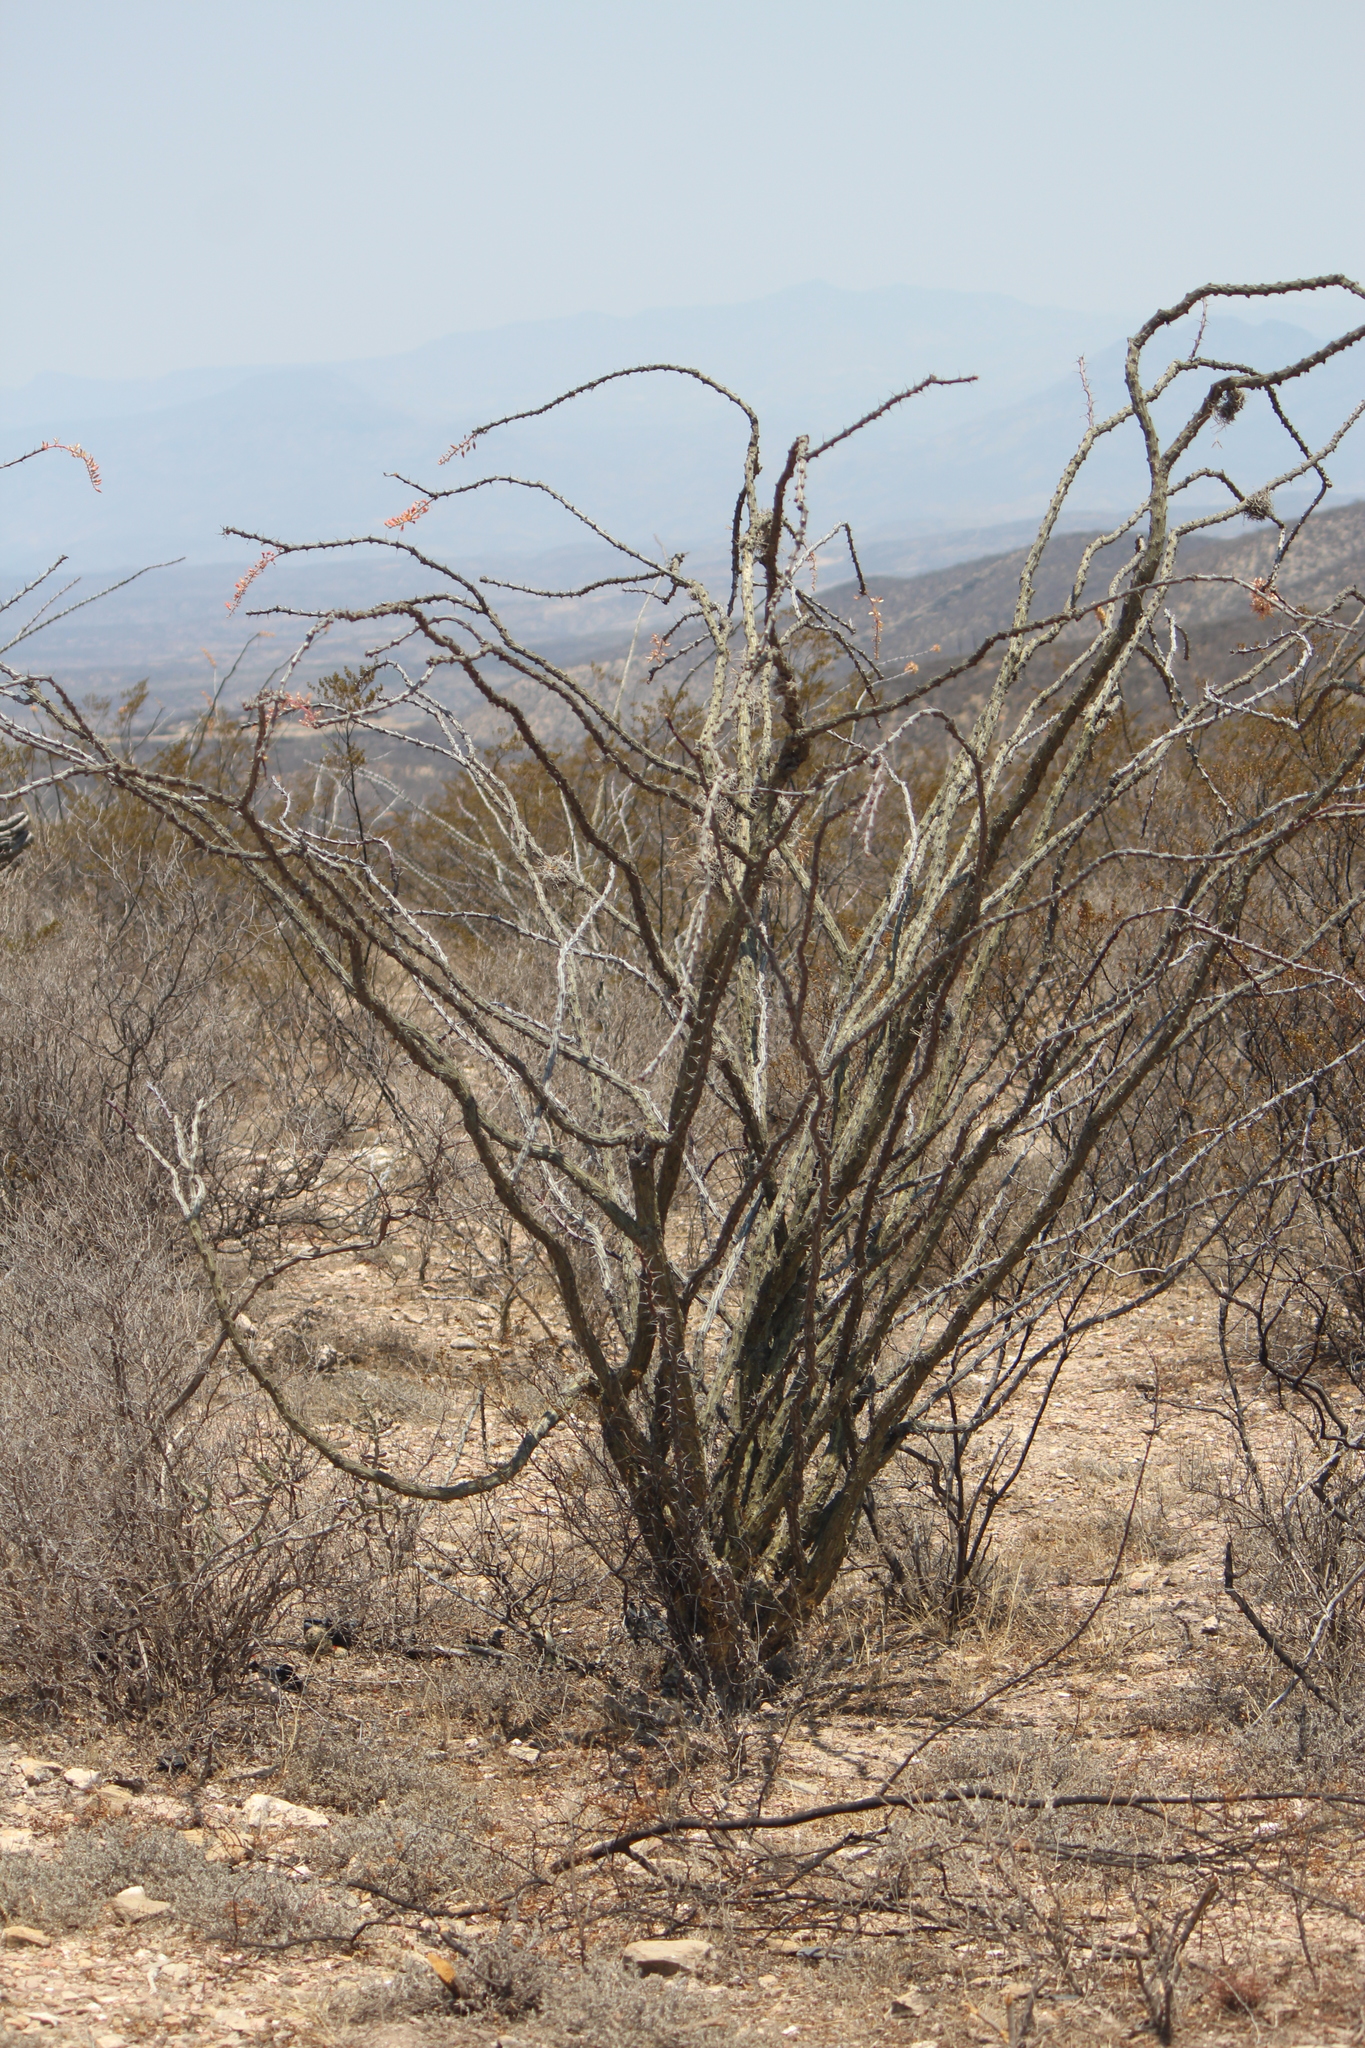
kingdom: Plantae
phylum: Tracheophyta
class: Magnoliopsida
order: Ericales
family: Fouquieriaceae
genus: Fouquieria
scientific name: Fouquieria splendens
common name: Vine-cactus
